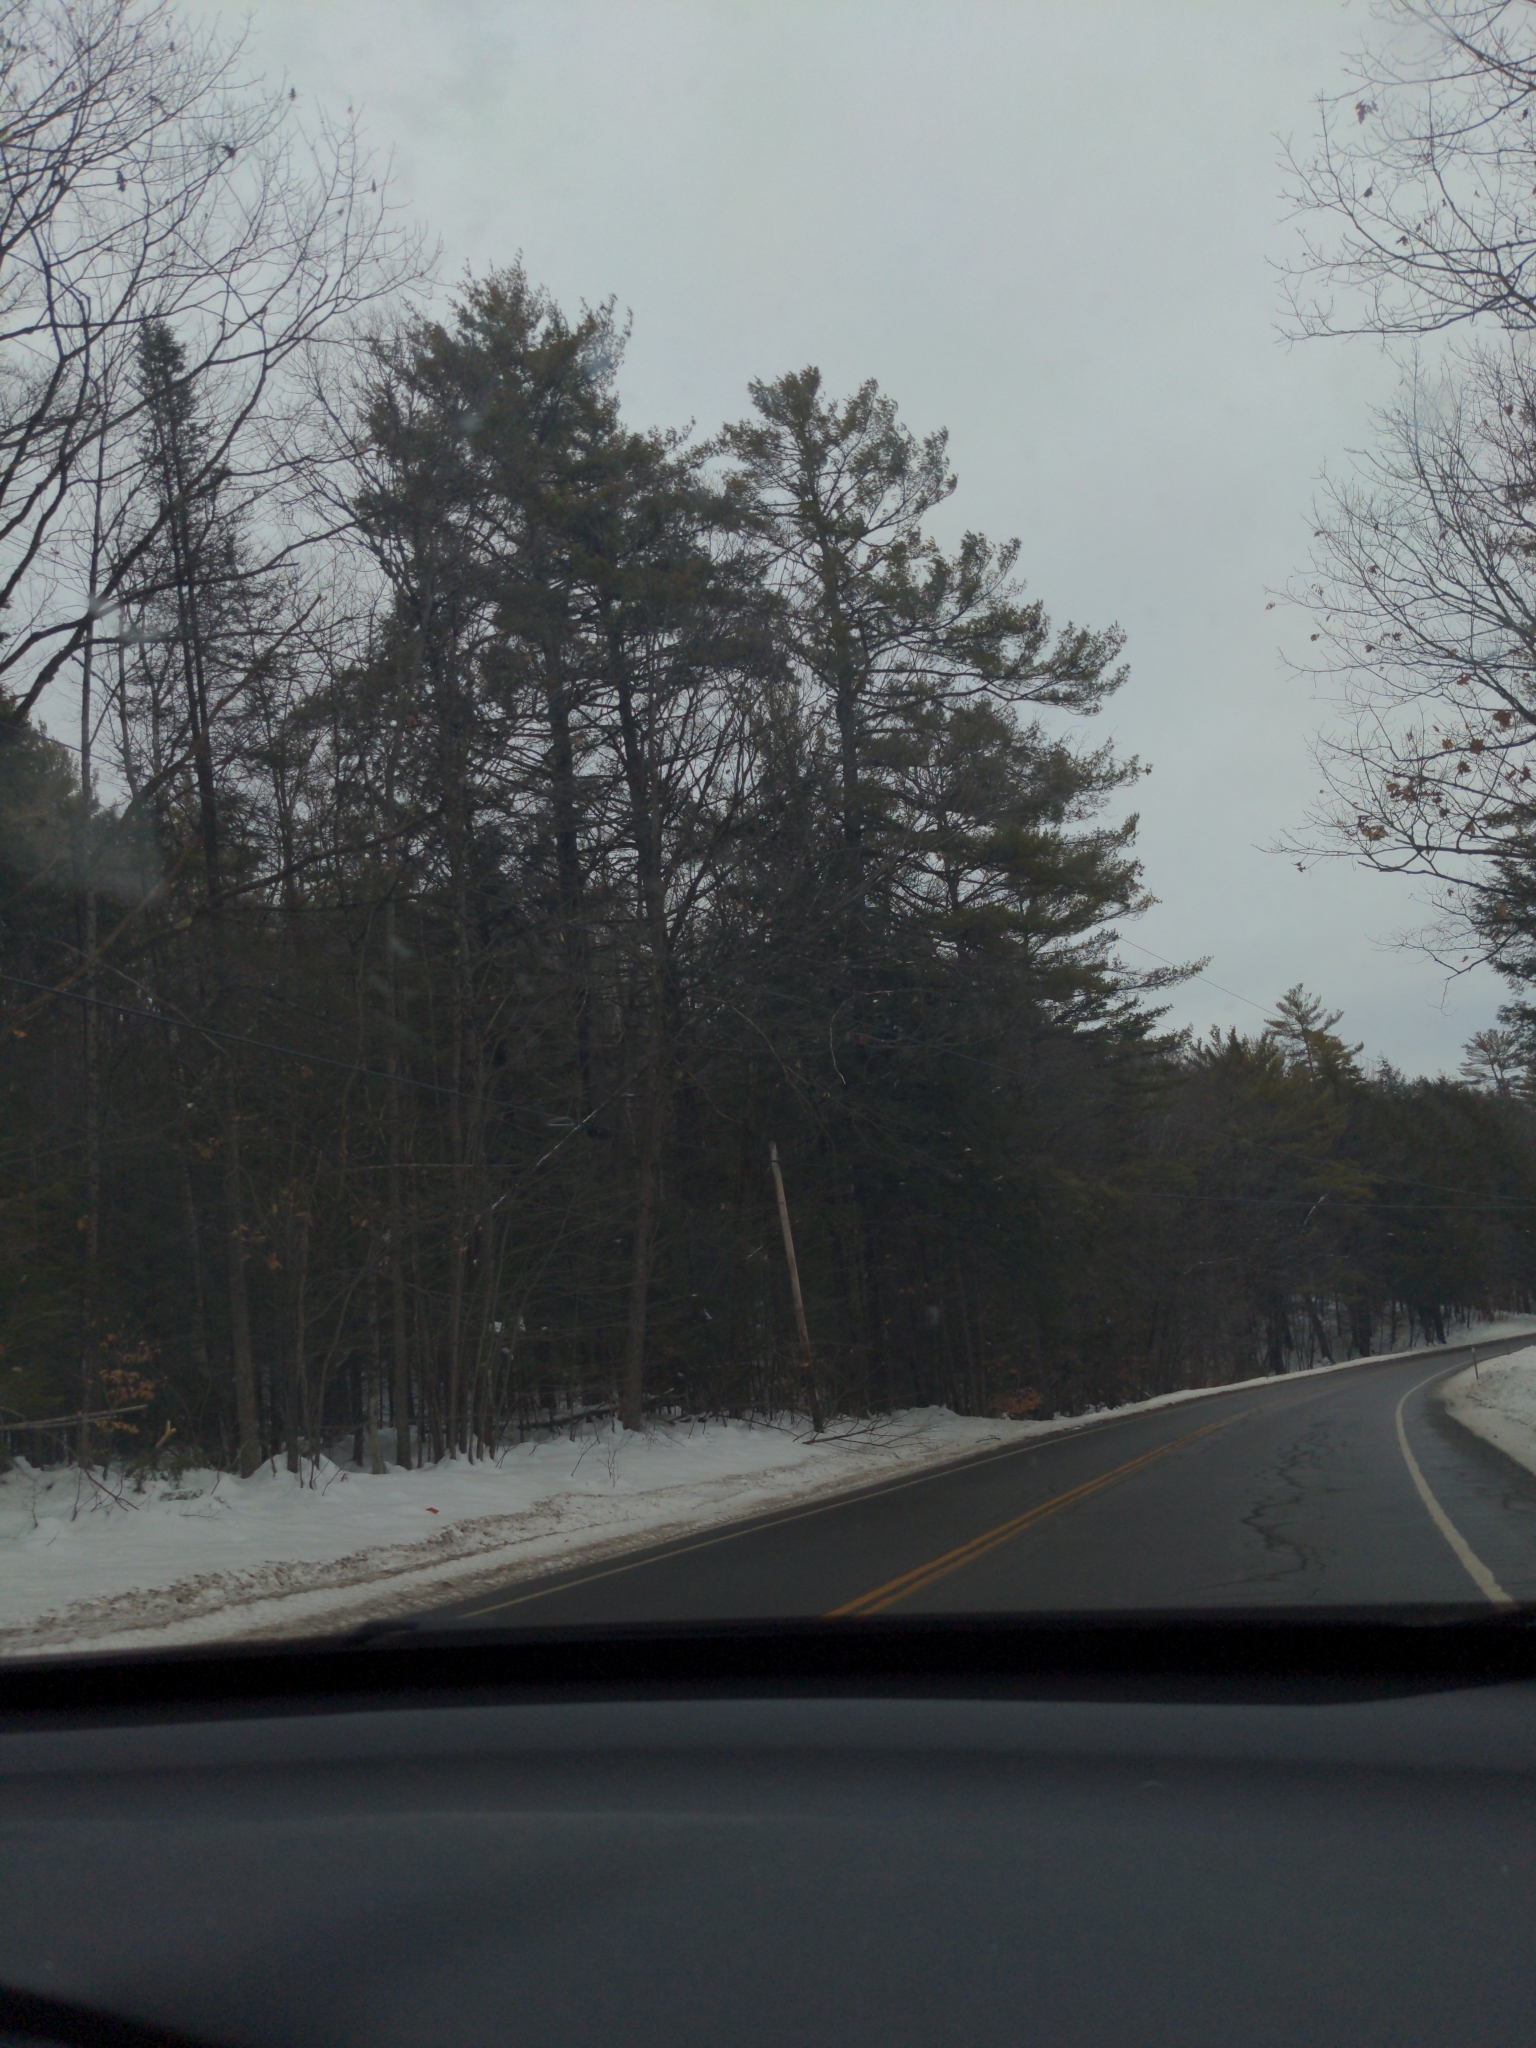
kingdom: Plantae
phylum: Tracheophyta
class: Pinopsida
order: Pinales
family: Pinaceae
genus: Pinus
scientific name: Pinus strobus
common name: Weymouth pine
